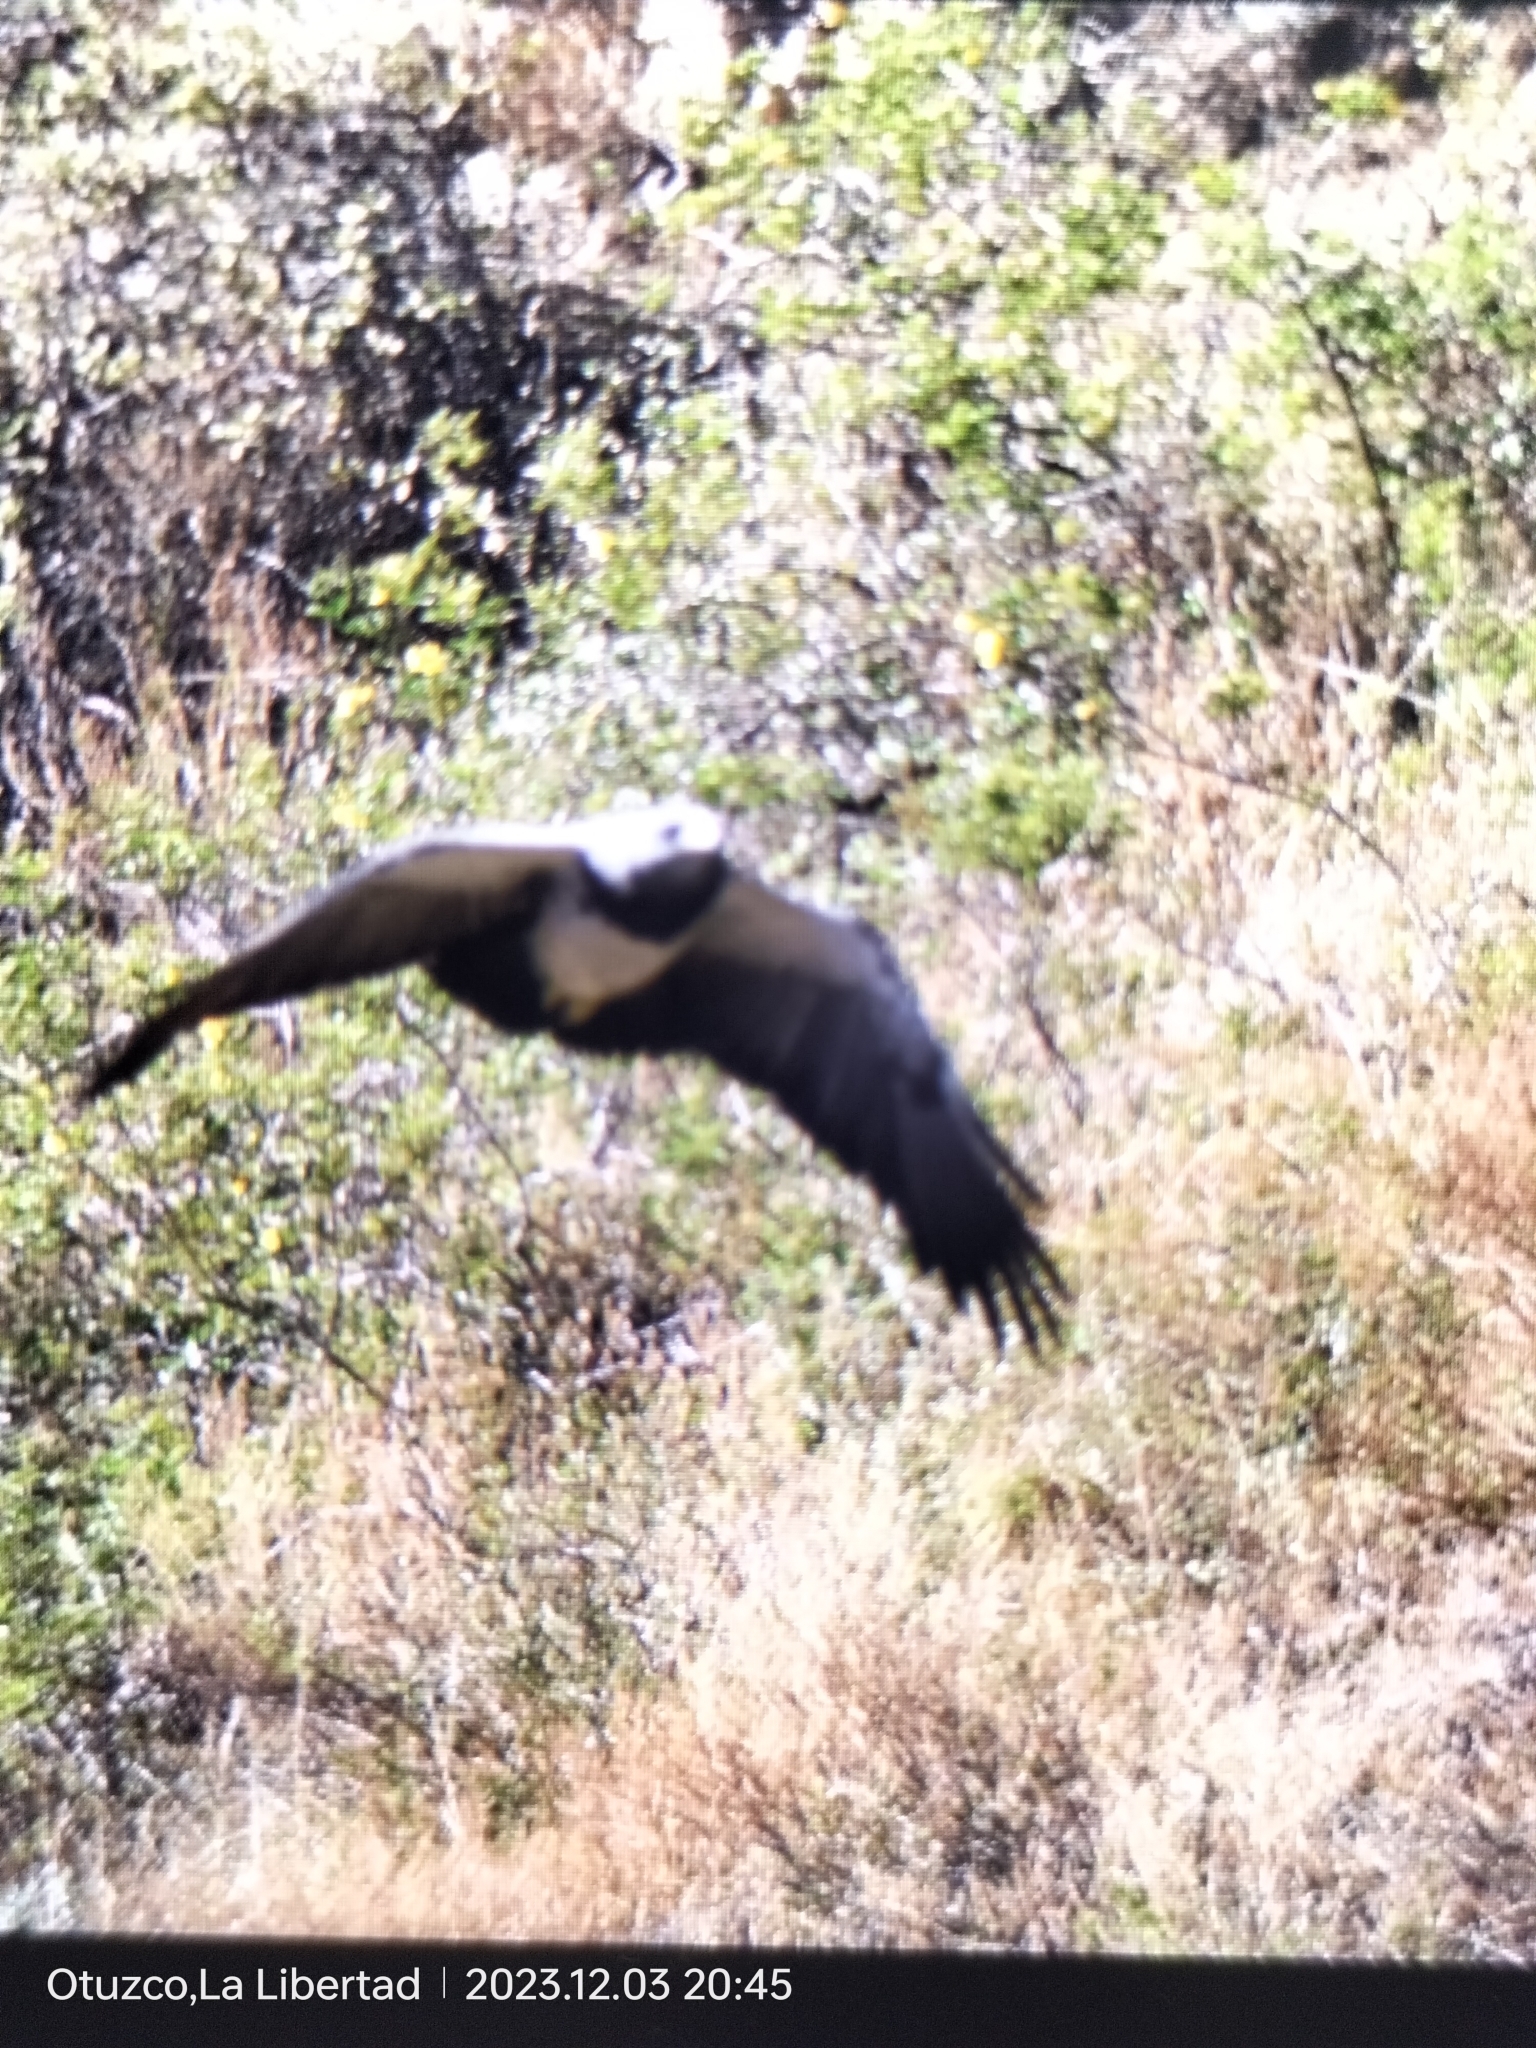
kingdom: Animalia
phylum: Chordata
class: Aves
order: Accipitriformes
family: Accipitridae
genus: Geranoaetus
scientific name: Geranoaetus melanoleucus
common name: Black-chested buzzard-eagle
